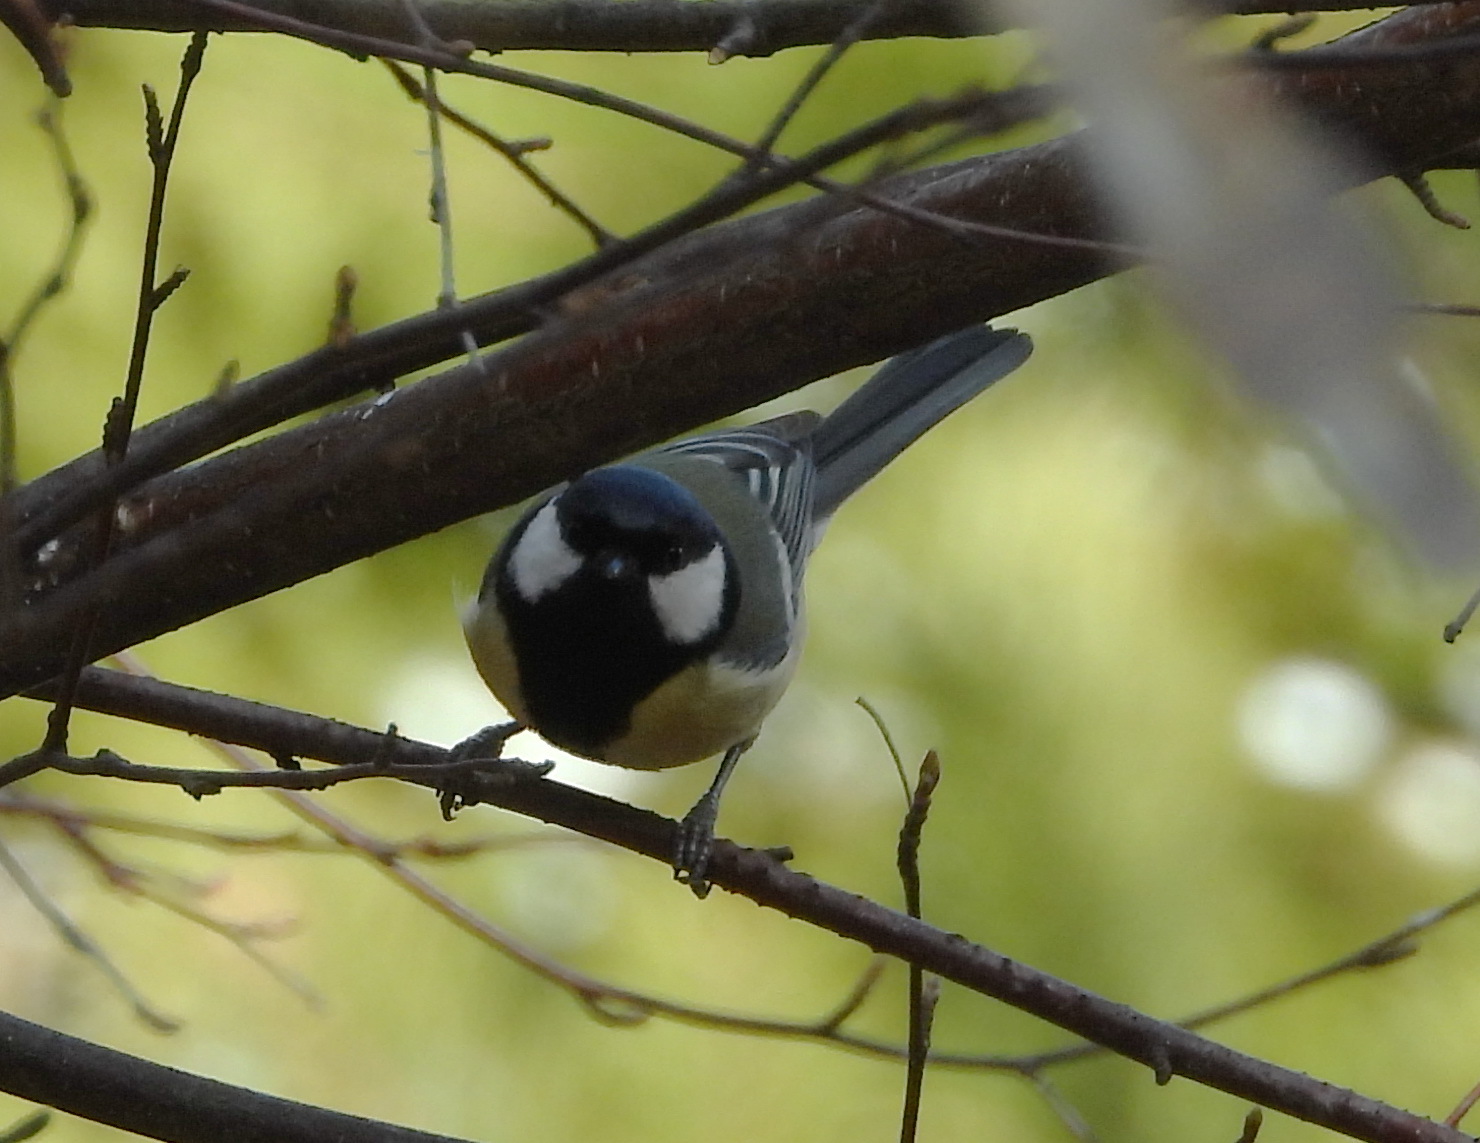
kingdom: Animalia
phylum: Chordata
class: Aves
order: Passeriformes
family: Paridae
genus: Parus
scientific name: Parus major
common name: Great tit
